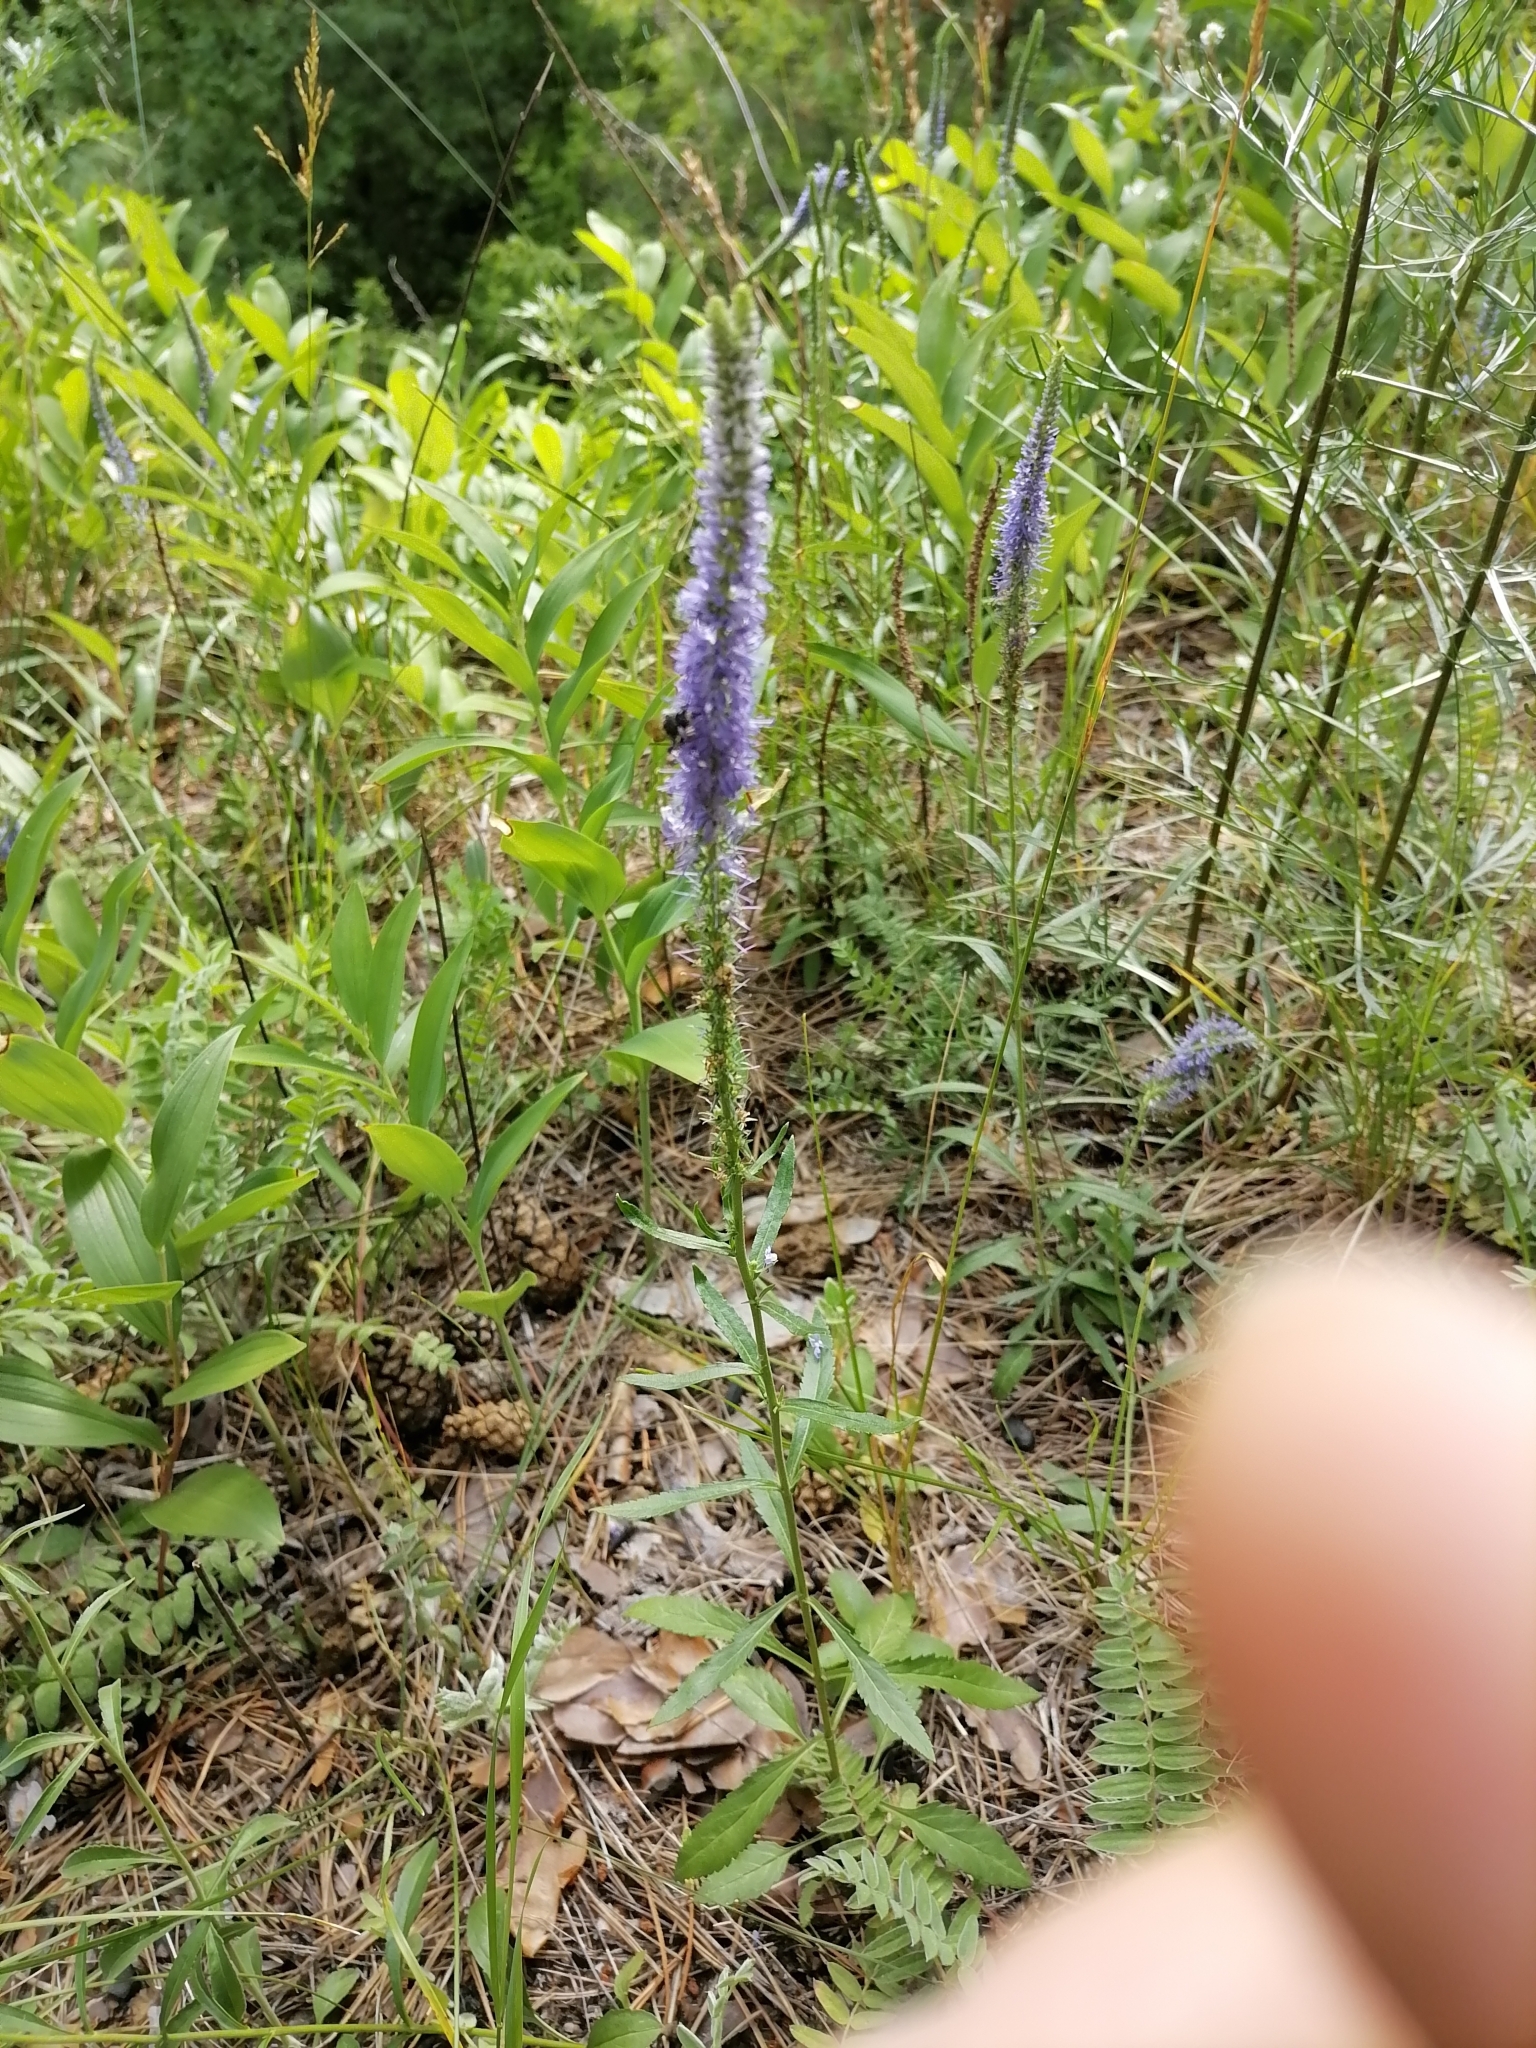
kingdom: Plantae
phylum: Tracheophyta
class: Magnoliopsida
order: Lamiales
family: Plantaginaceae
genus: Veronica
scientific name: Veronica spicata
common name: Spiked speedwell
